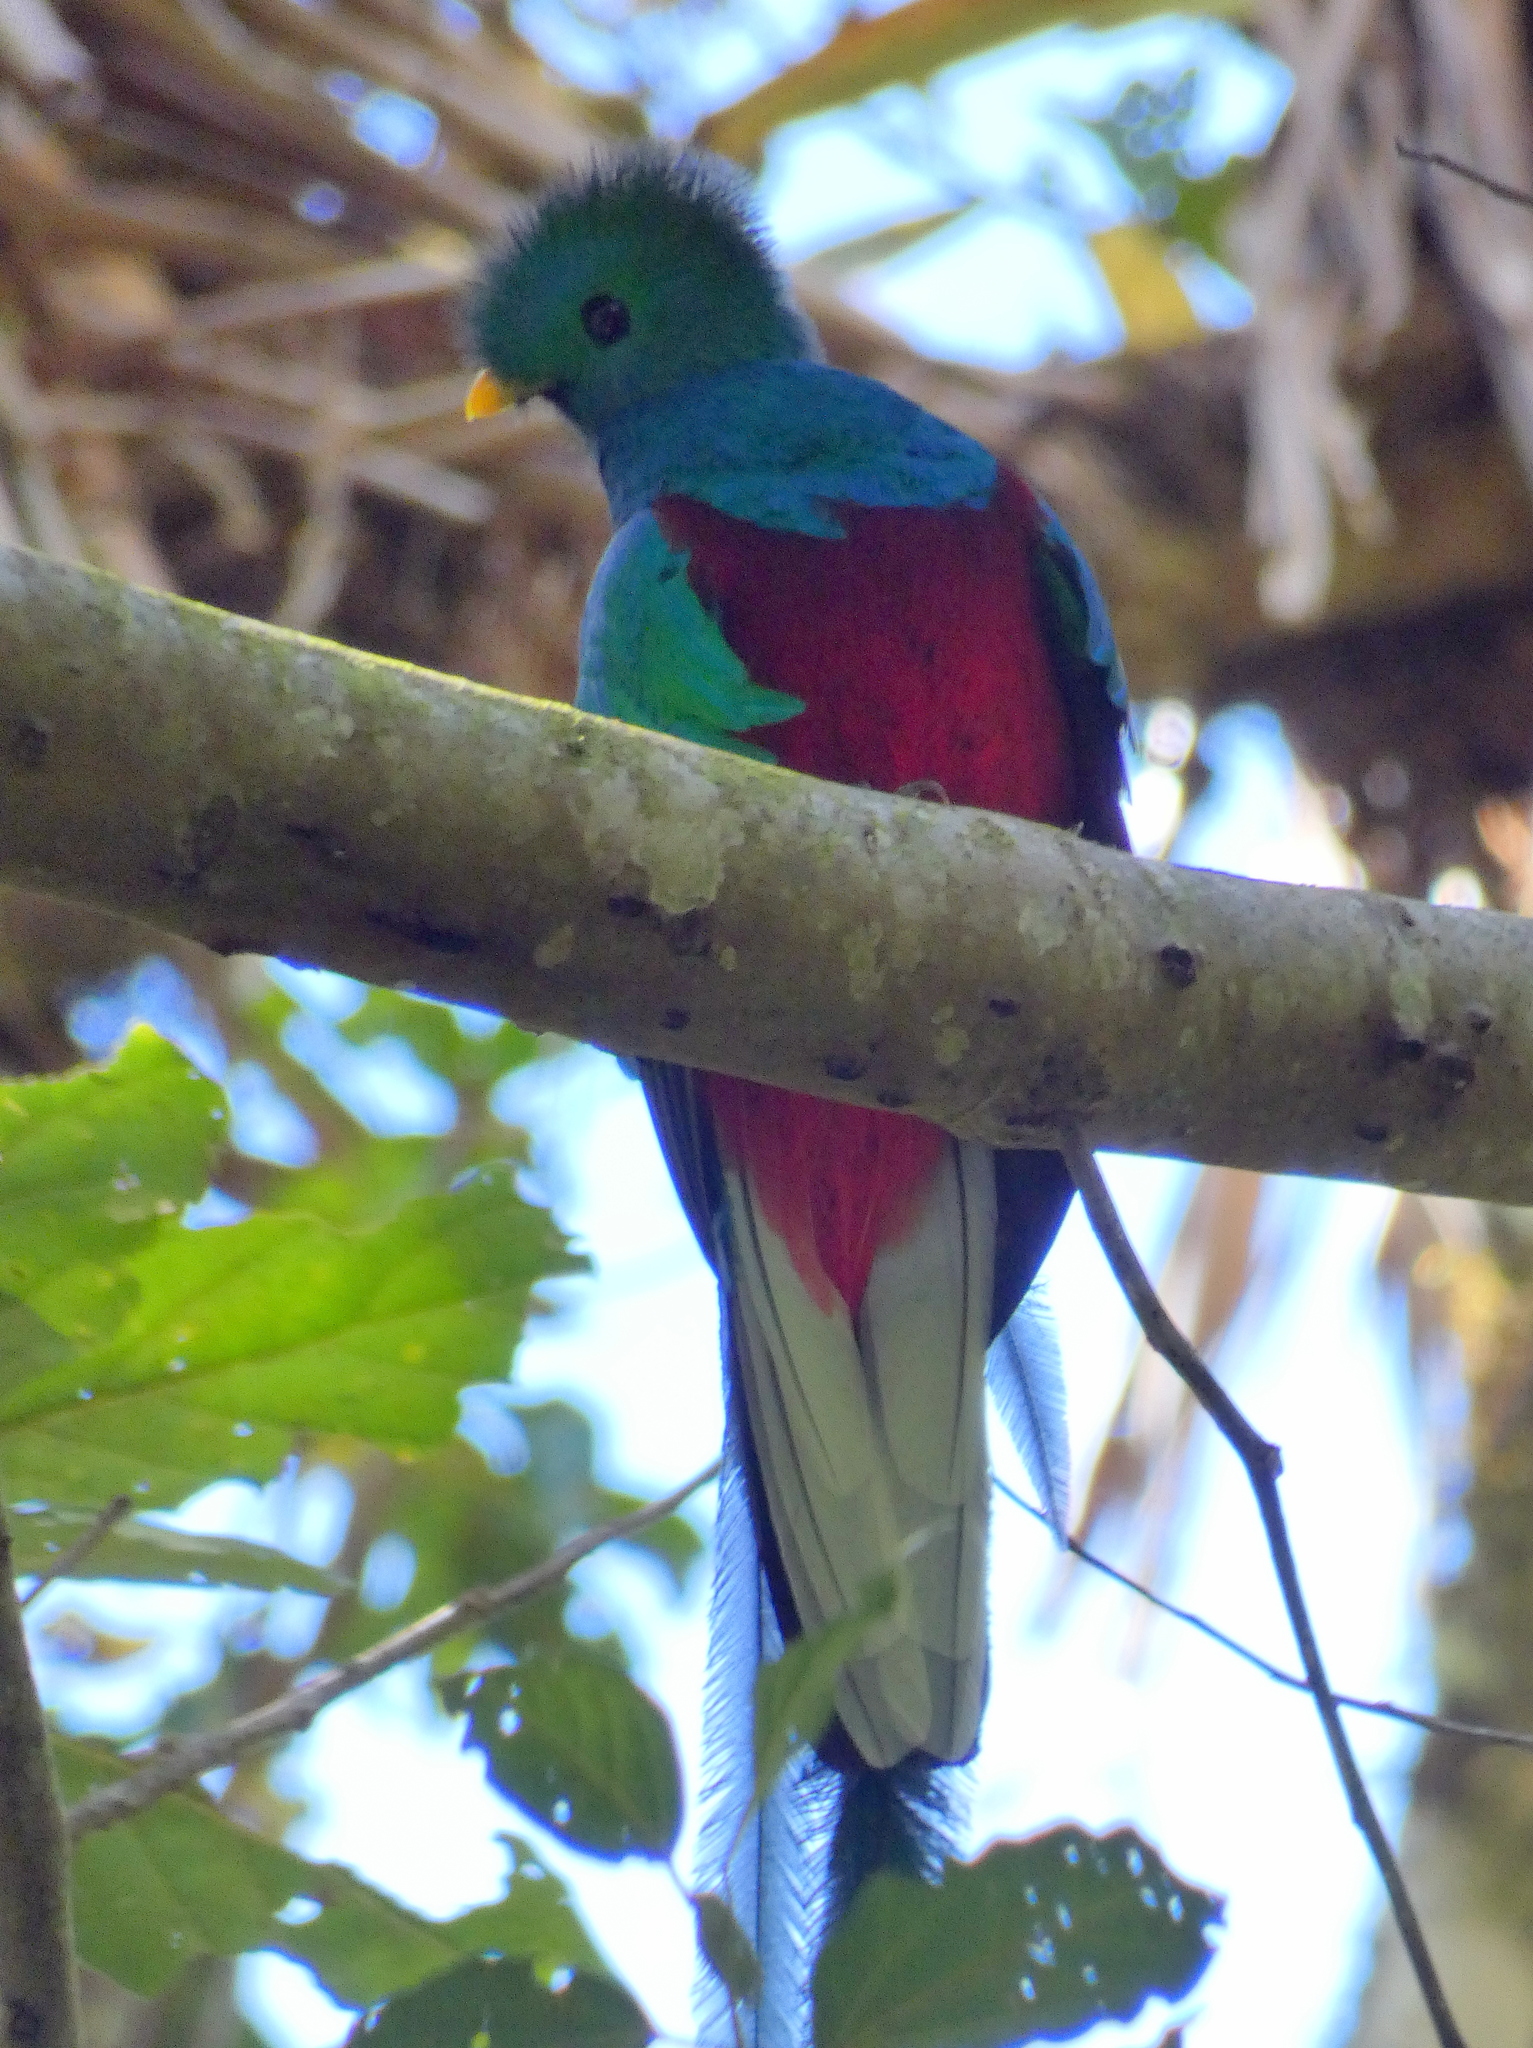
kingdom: Animalia
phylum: Chordata
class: Aves
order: Trogoniformes
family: Trogonidae
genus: Pharomachrus
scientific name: Pharomachrus mocinno
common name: Resplendent quetzal
